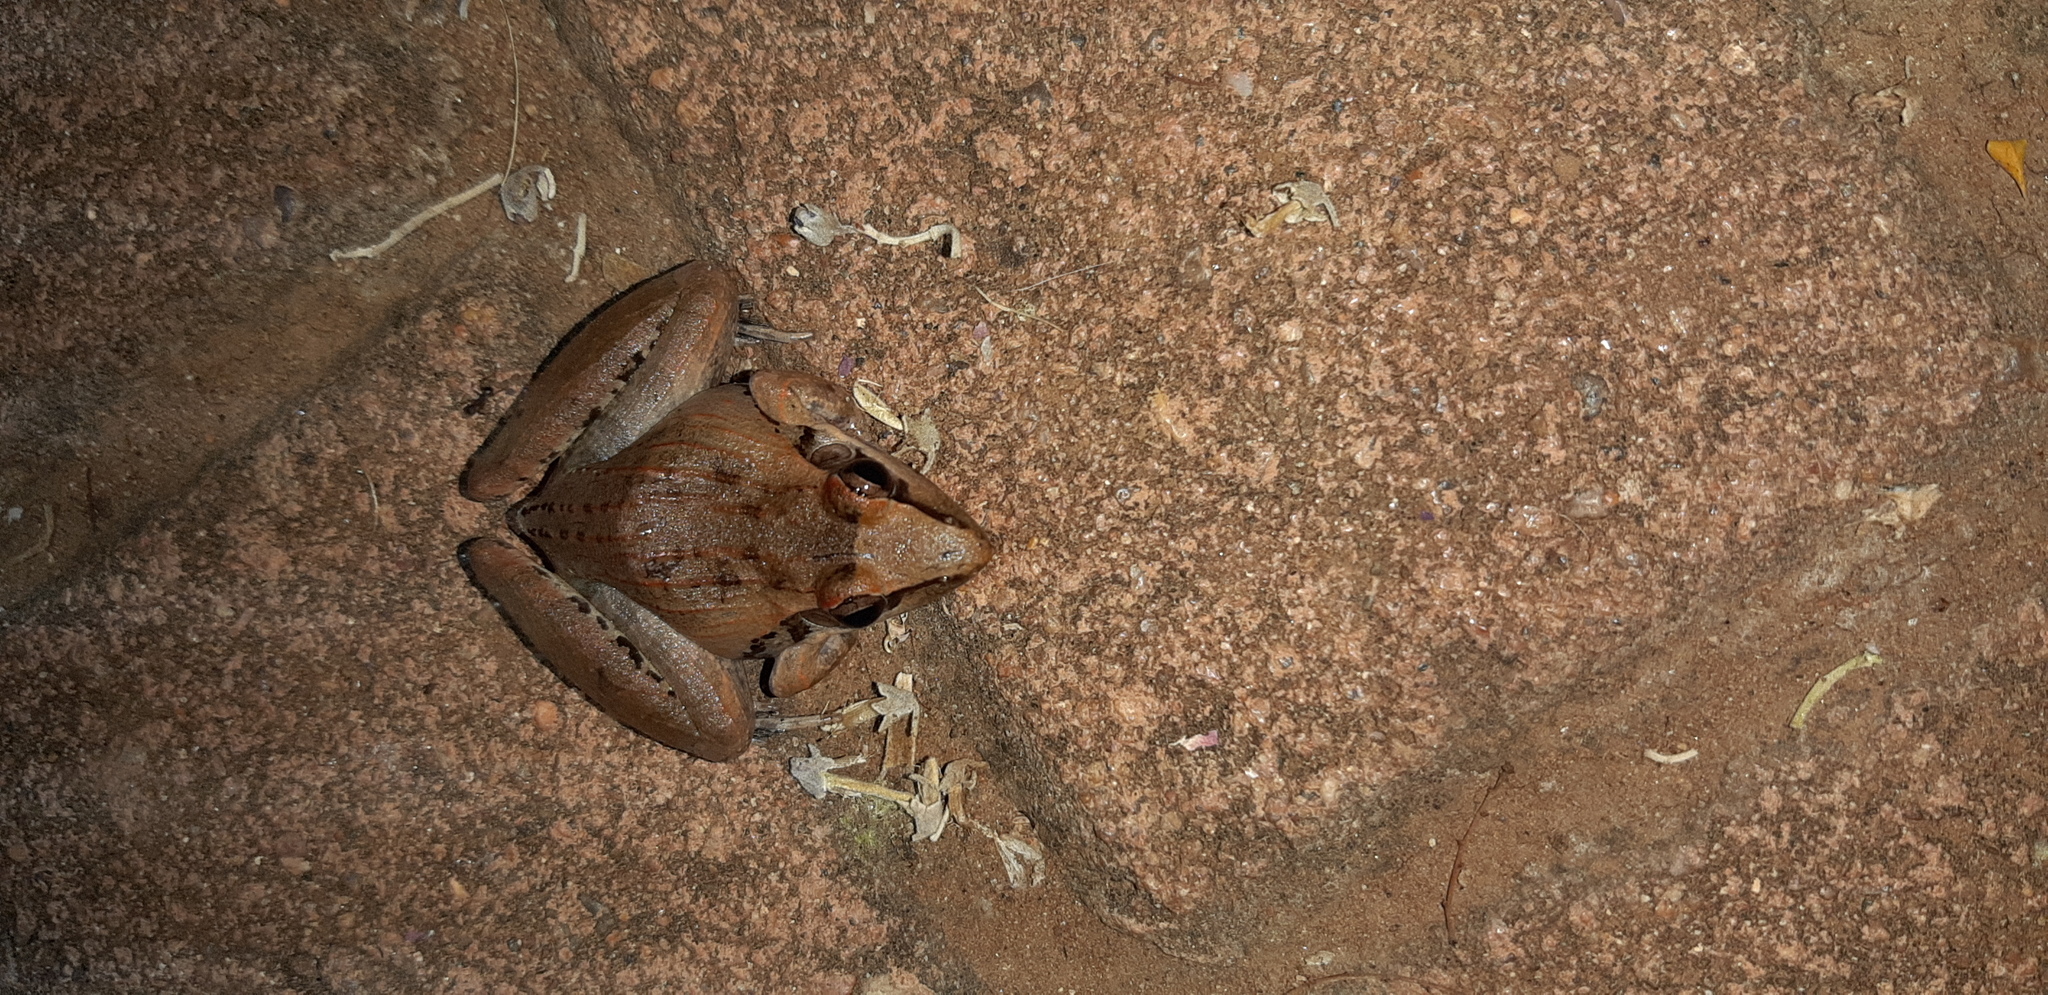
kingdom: Animalia
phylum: Chordata
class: Amphibia
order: Anura
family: Ptychadenidae
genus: Ptychadena
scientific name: Ptychadena anchietae
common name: Anchieta's ridged frog
